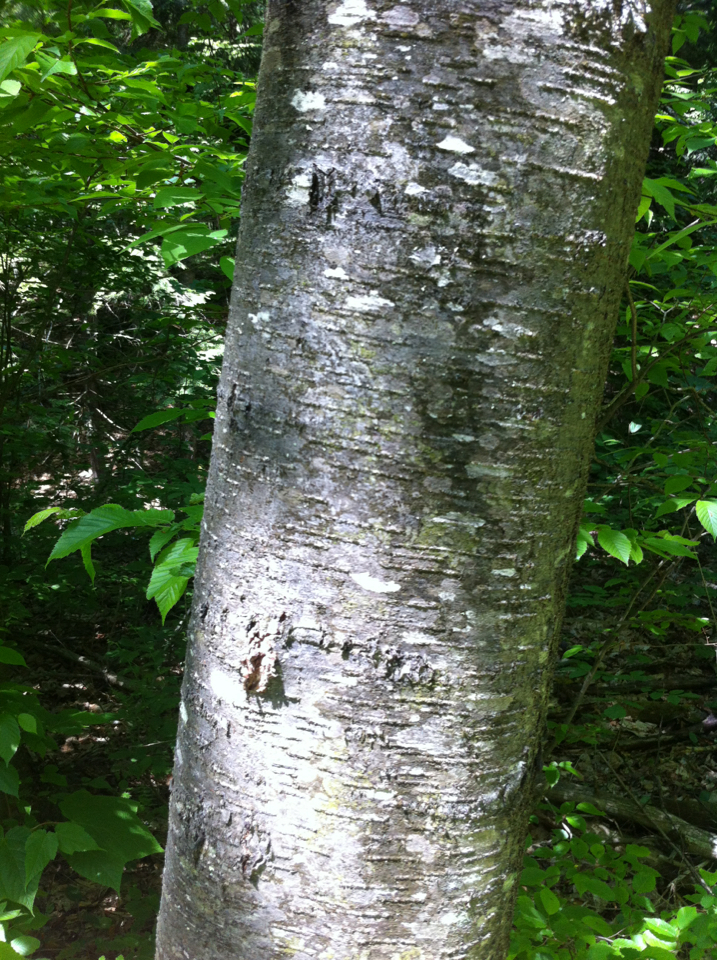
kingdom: Plantae
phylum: Tracheophyta
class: Magnoliopsida
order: Fagales
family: Betulaceae
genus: Betula
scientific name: Betula lenta
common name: Black birch
